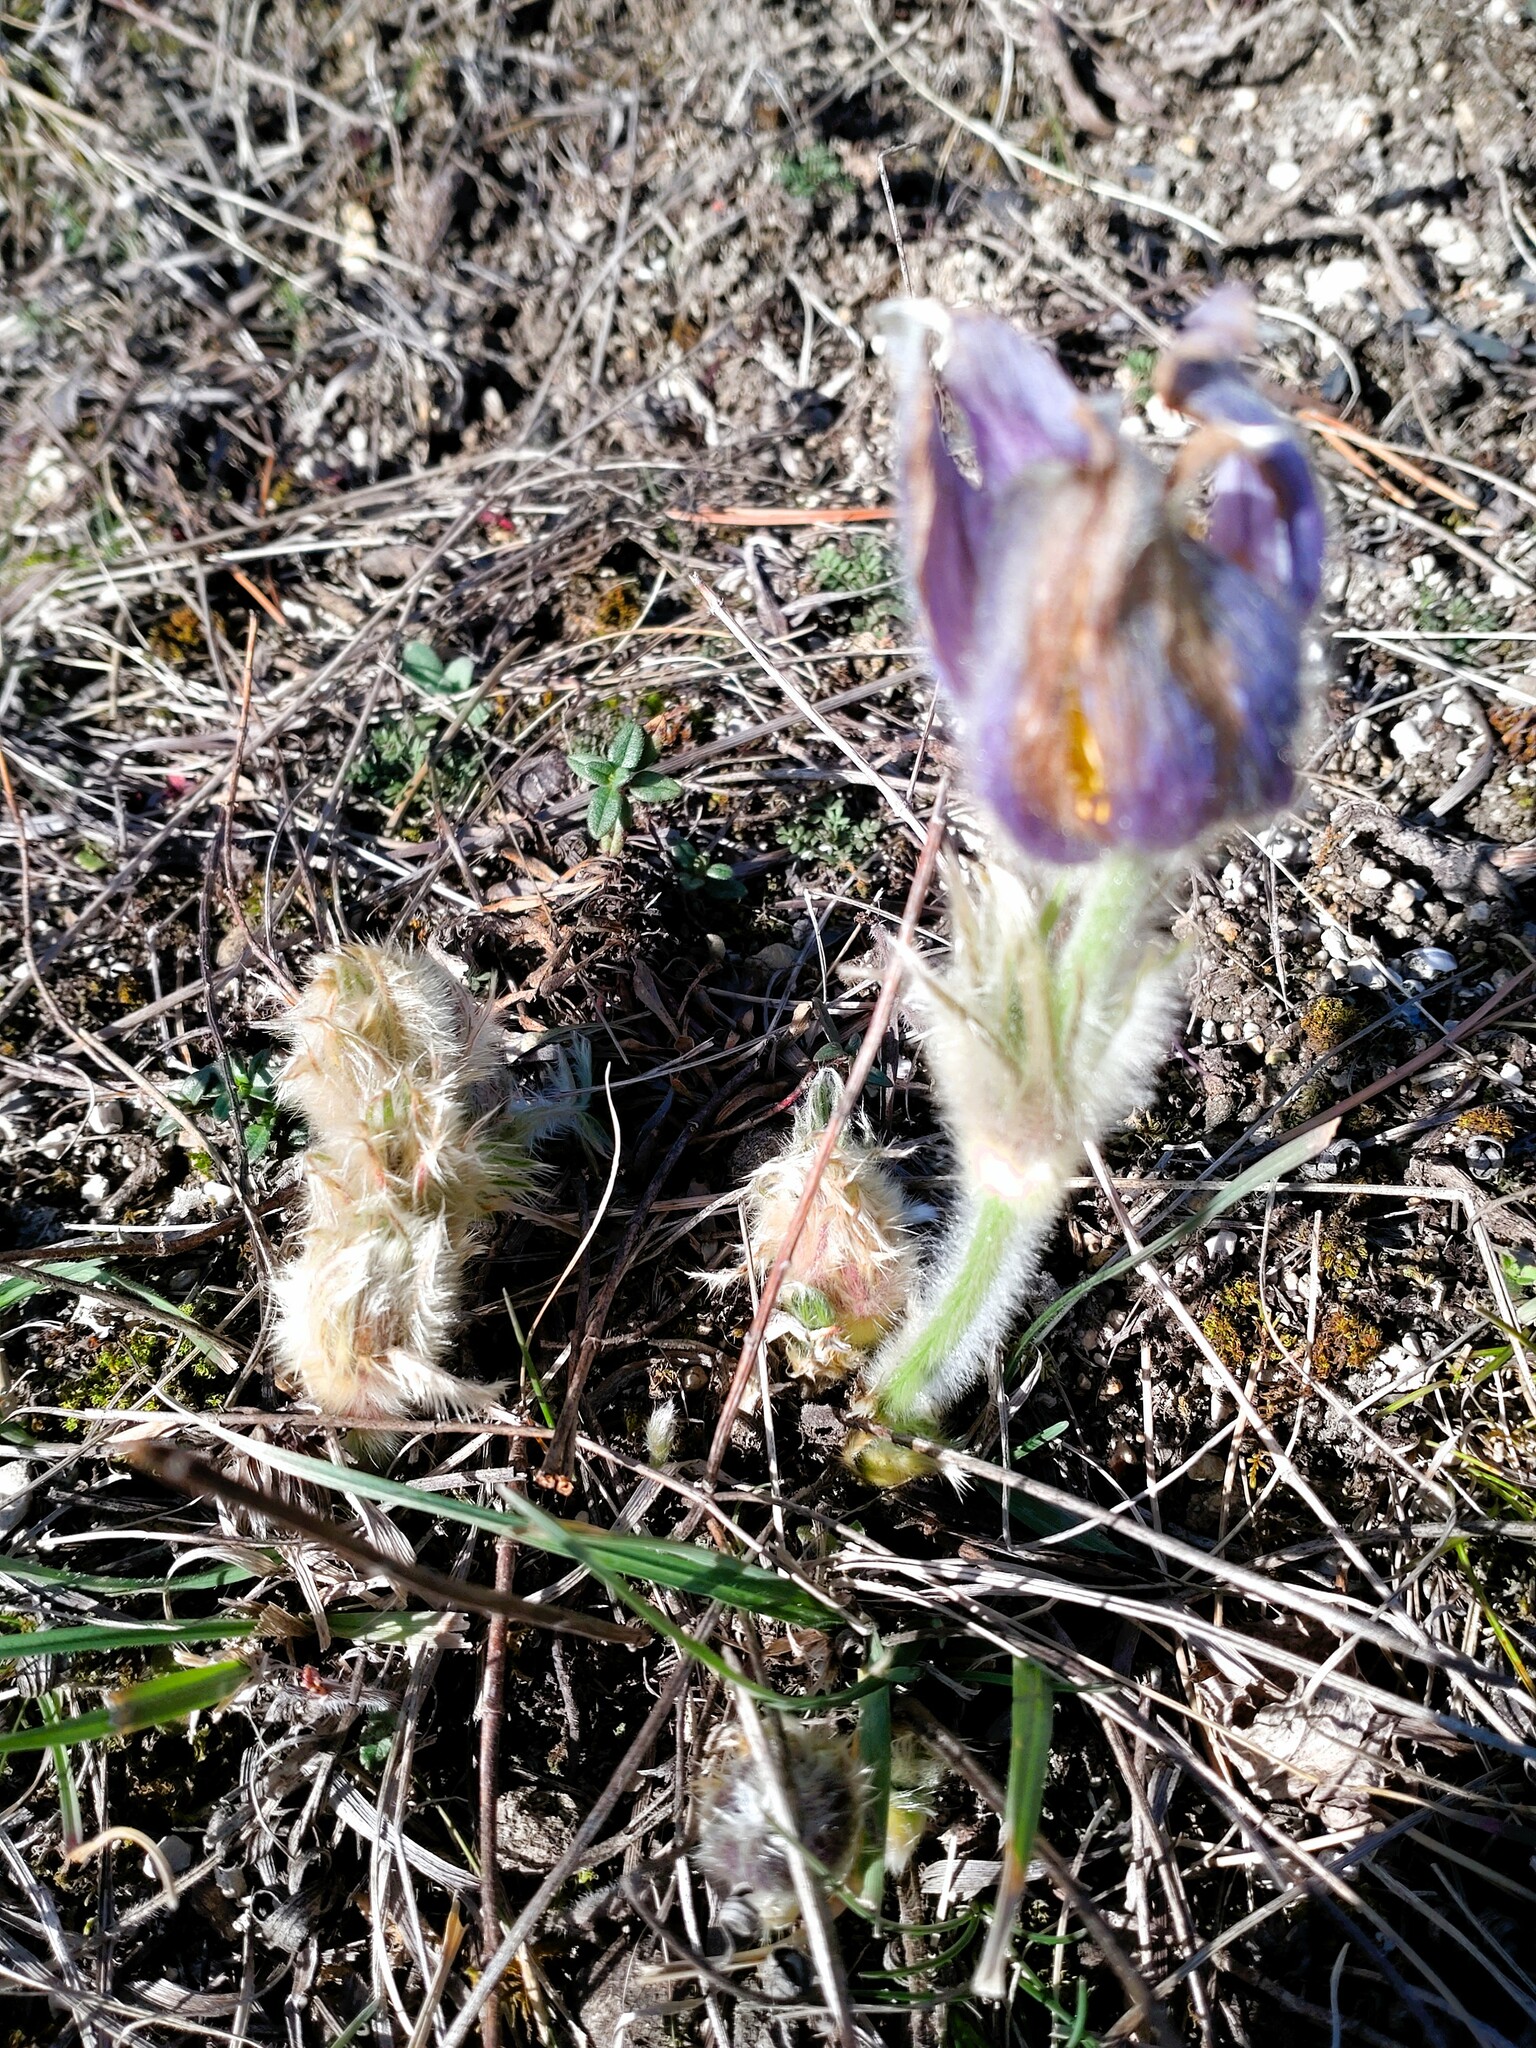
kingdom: Plantae
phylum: Tracheophyta
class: Magnoliopsida
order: Ranunculales
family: Ranunculaceae
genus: Pulsatilla
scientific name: Pulsatilla grandis
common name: Greater pasque flower
